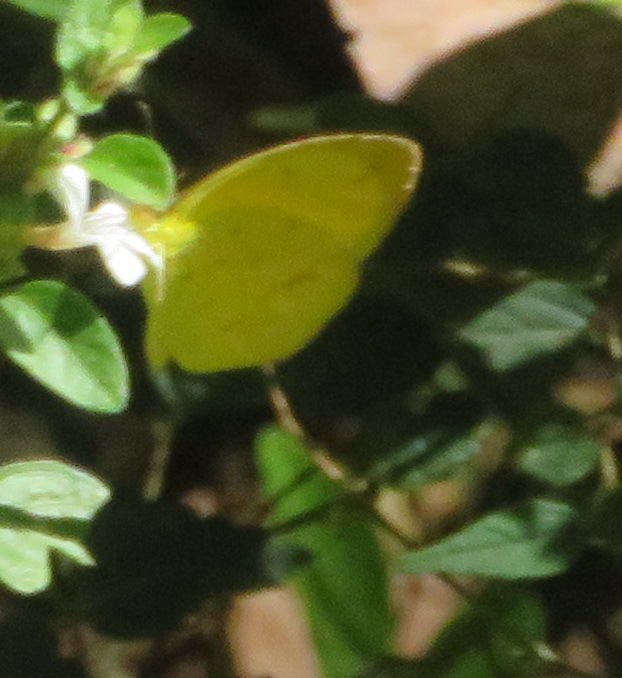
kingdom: Animalia
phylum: Arthropoda
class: Insecta
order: Lepidoptera
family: Pieridae
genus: Eurema
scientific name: Eurema regularis
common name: Regular grass yellow
